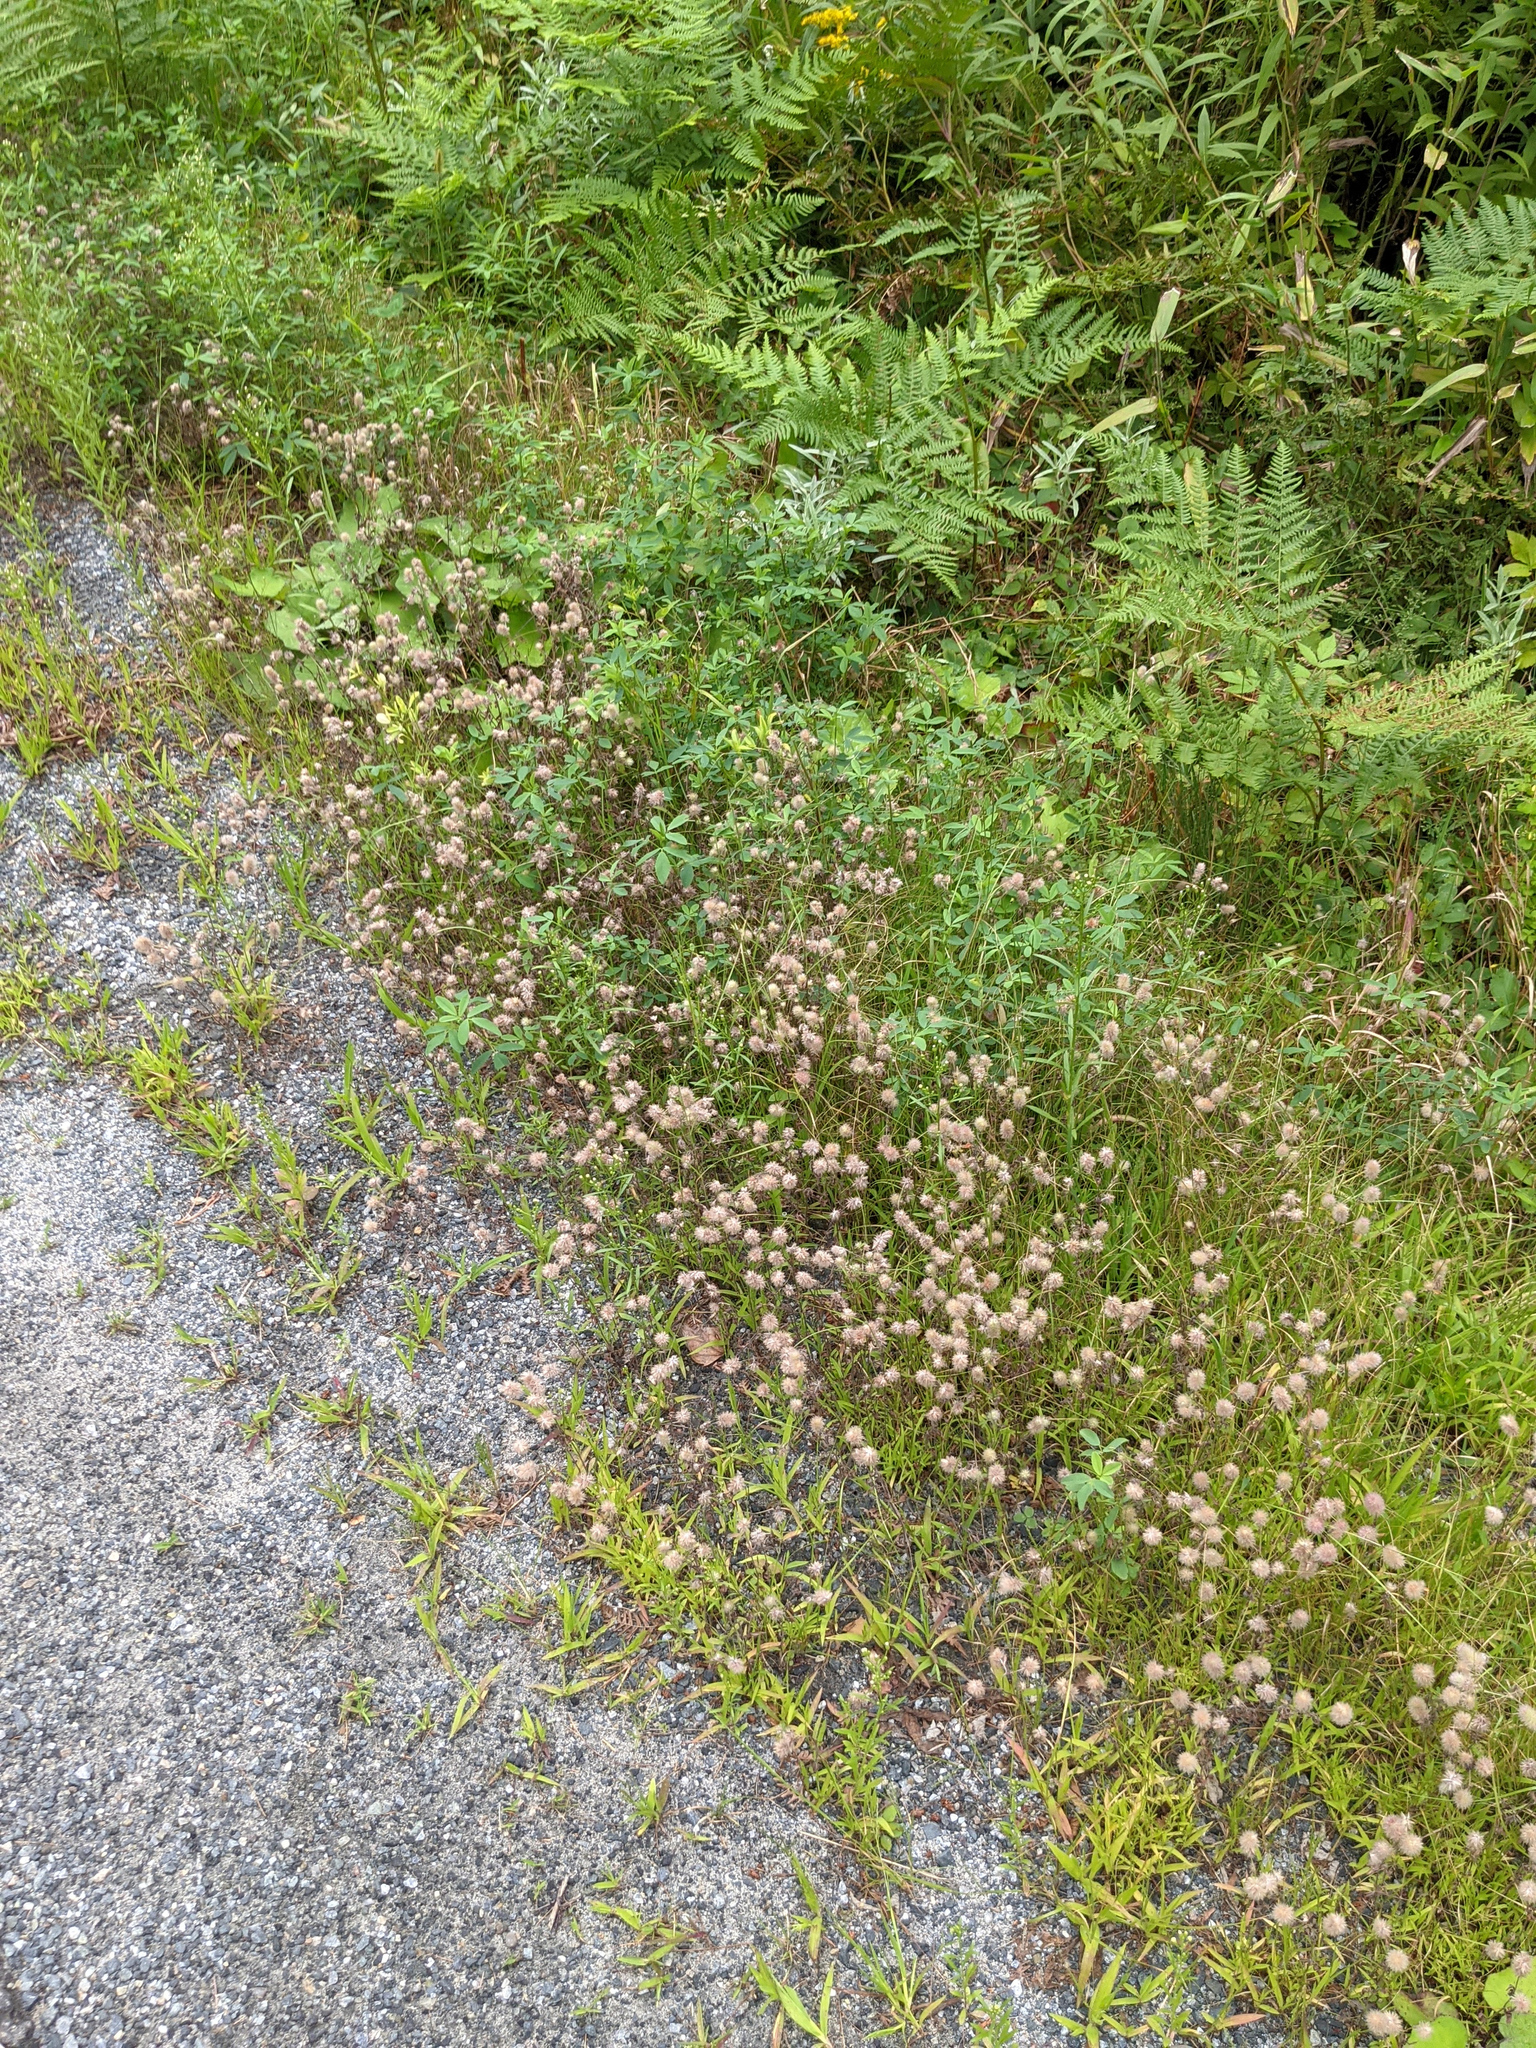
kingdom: Plantae
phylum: Tracheophyta
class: Magnoliopsida
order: Fabales
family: Fabaceae
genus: Trifolium
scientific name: Trifolium arvense
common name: Hare's-foot clover
